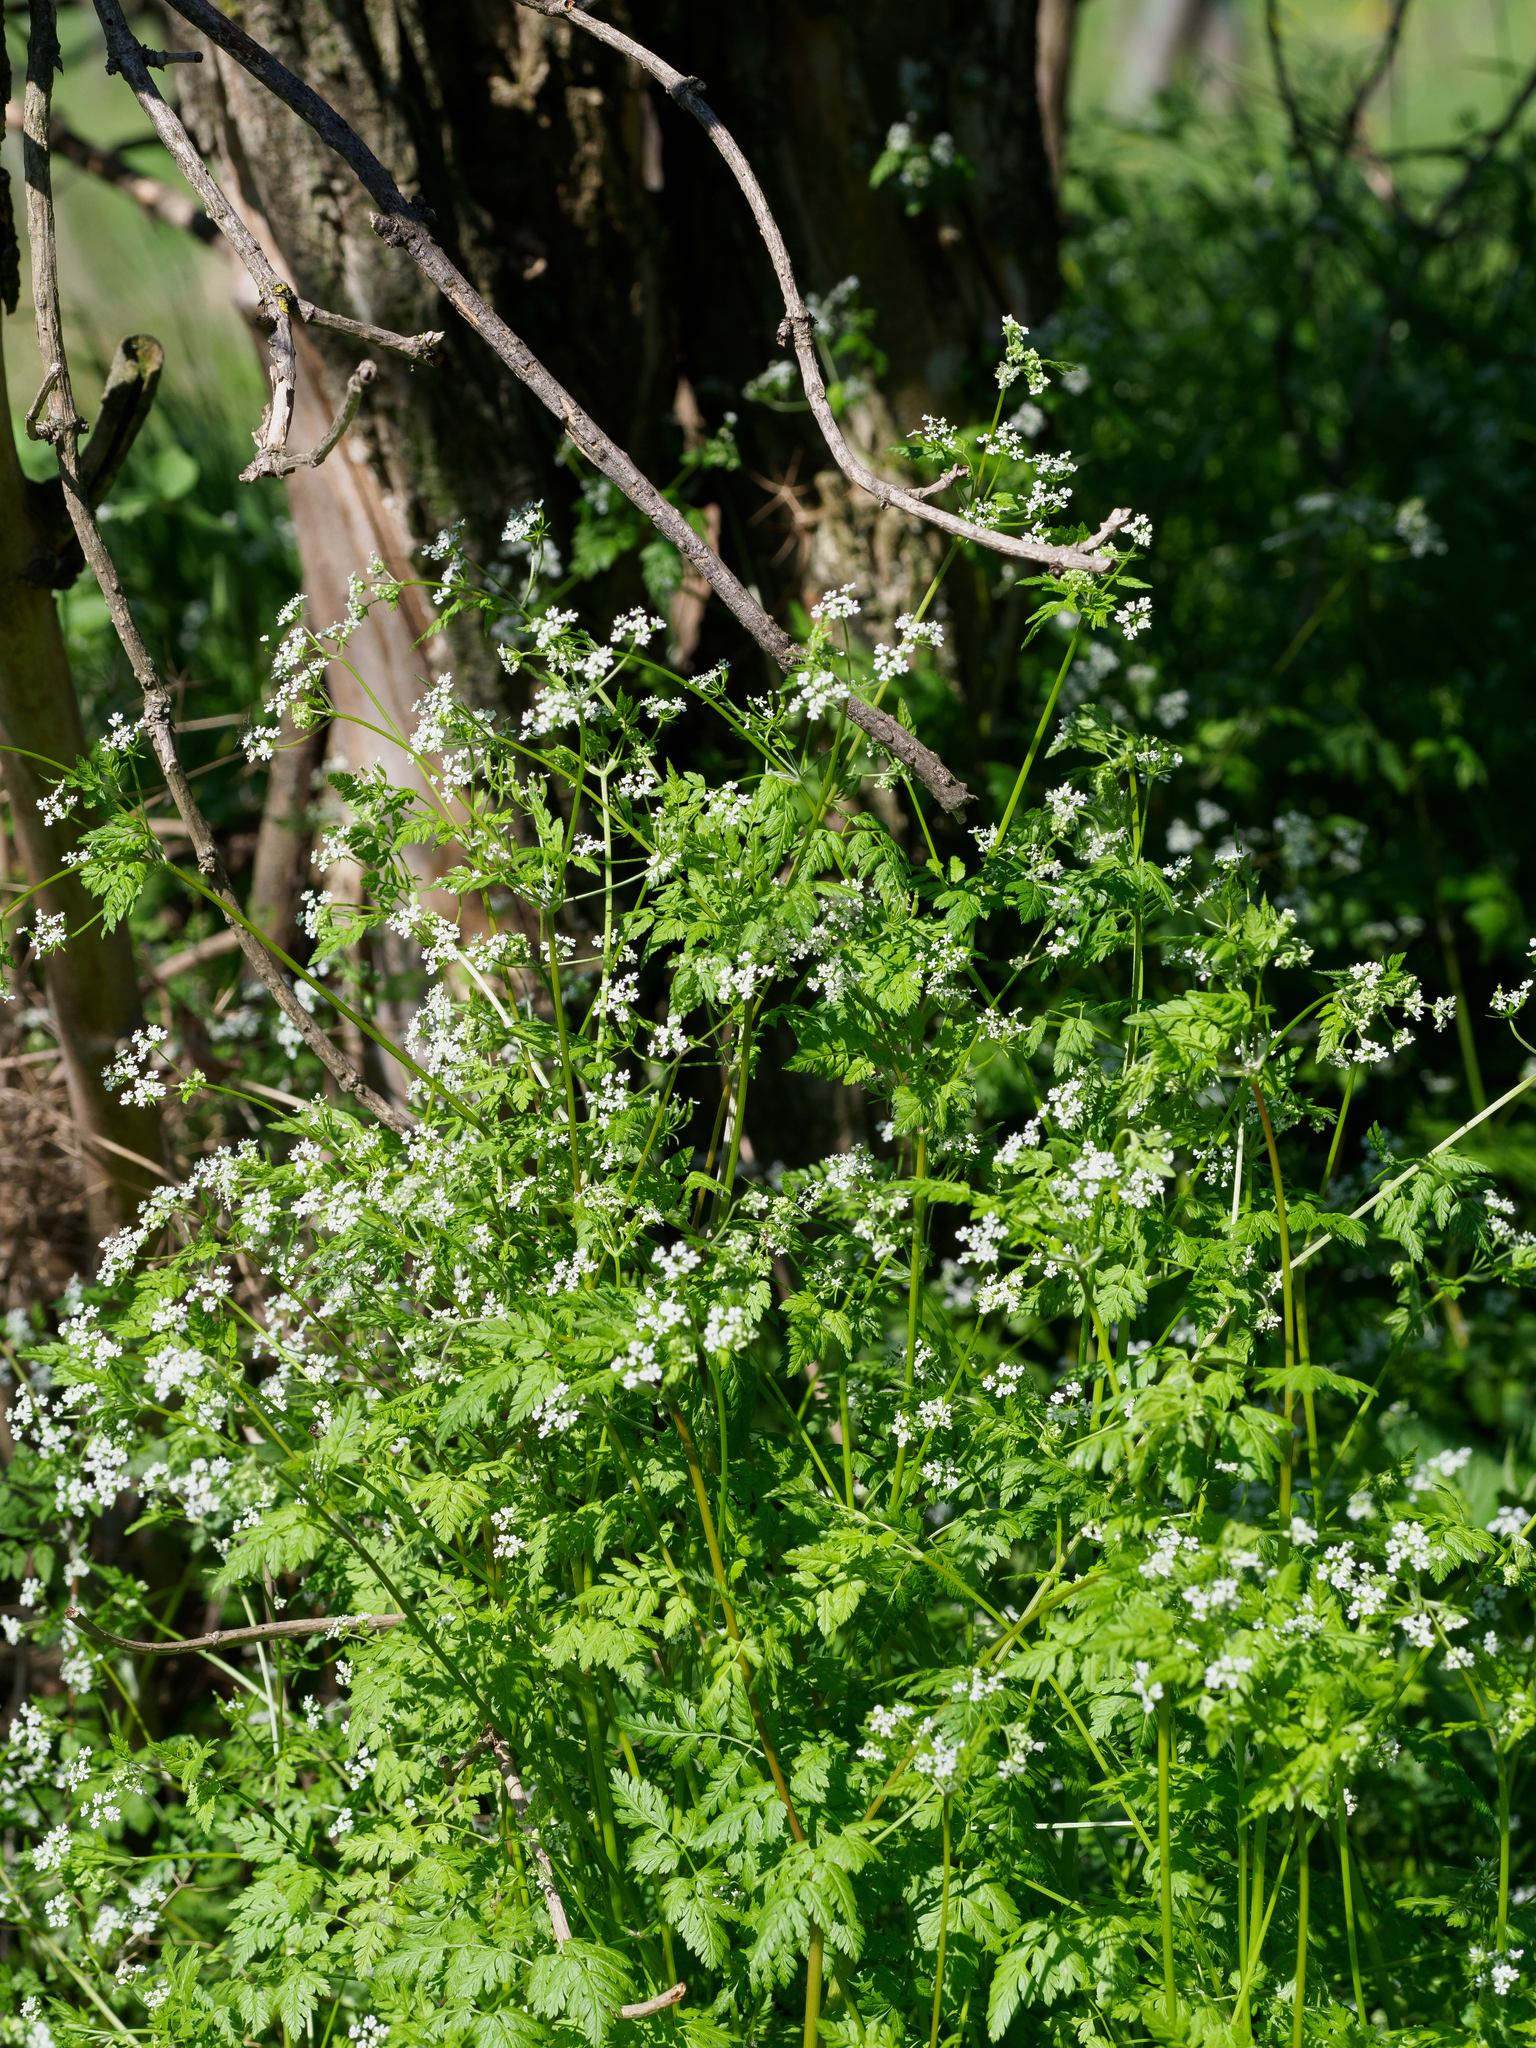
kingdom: Plantae
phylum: Tracheophyta
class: Magnoliopsida
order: Apiales
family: Apiaceae
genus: Anthriscus
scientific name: Anthriscus cerefolium
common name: Garden chervil
